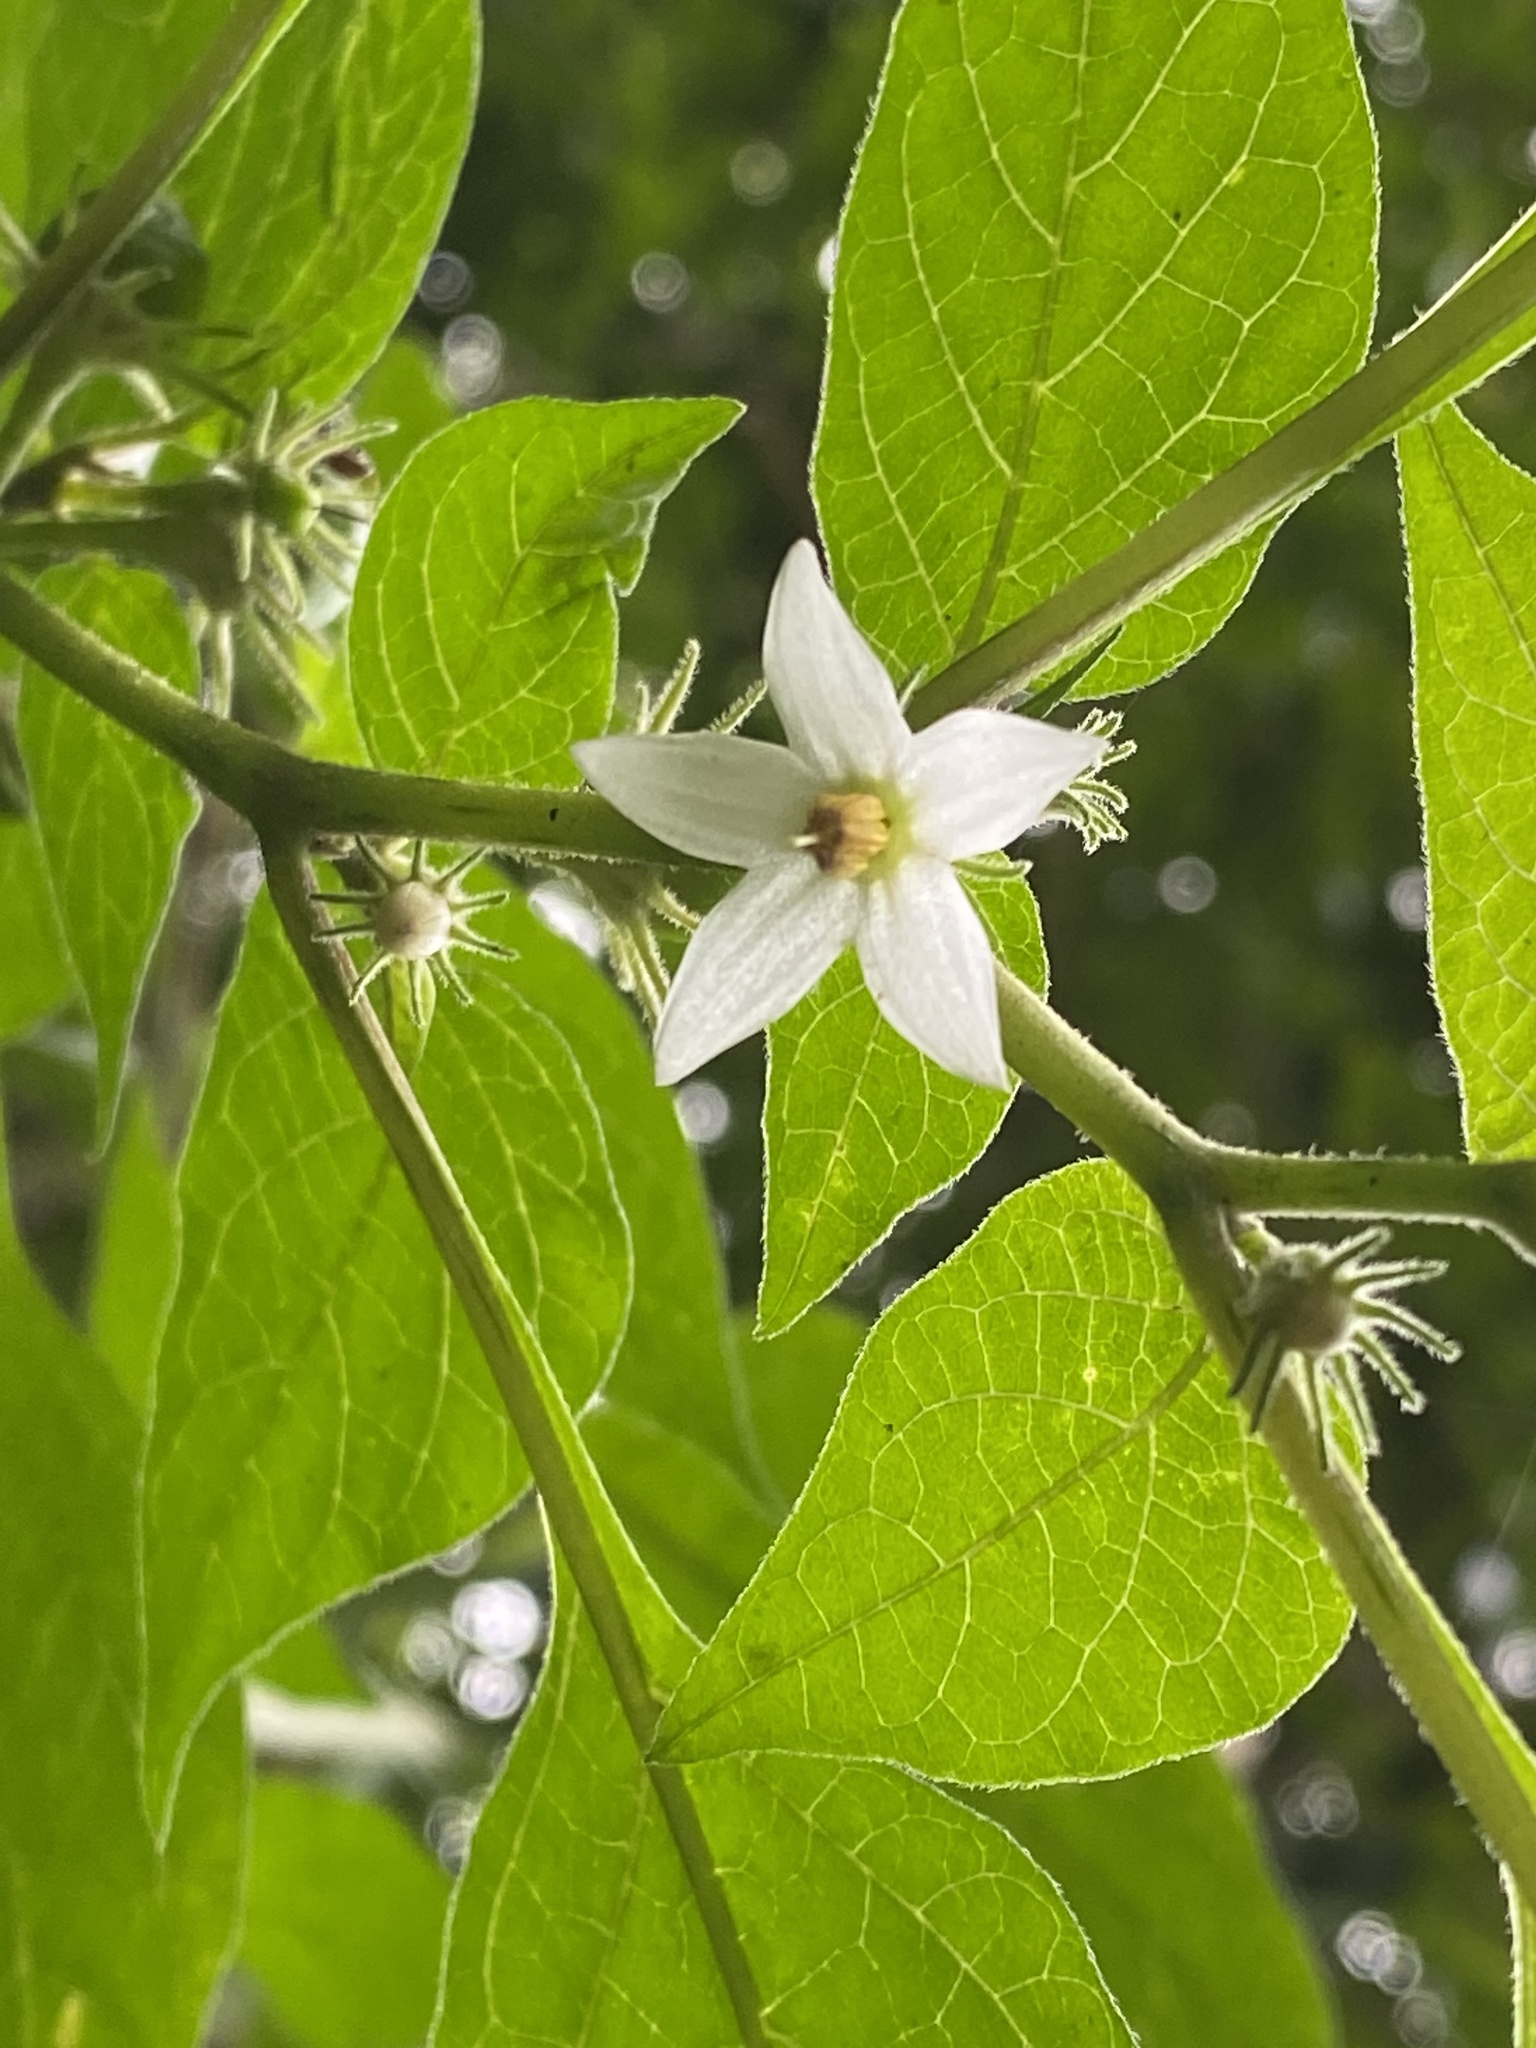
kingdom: Plantae
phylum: Tracheophyta
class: Magnoliopsida
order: Solanales
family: Solanaceae
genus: Lycianthes
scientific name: Lycianthes biflora
